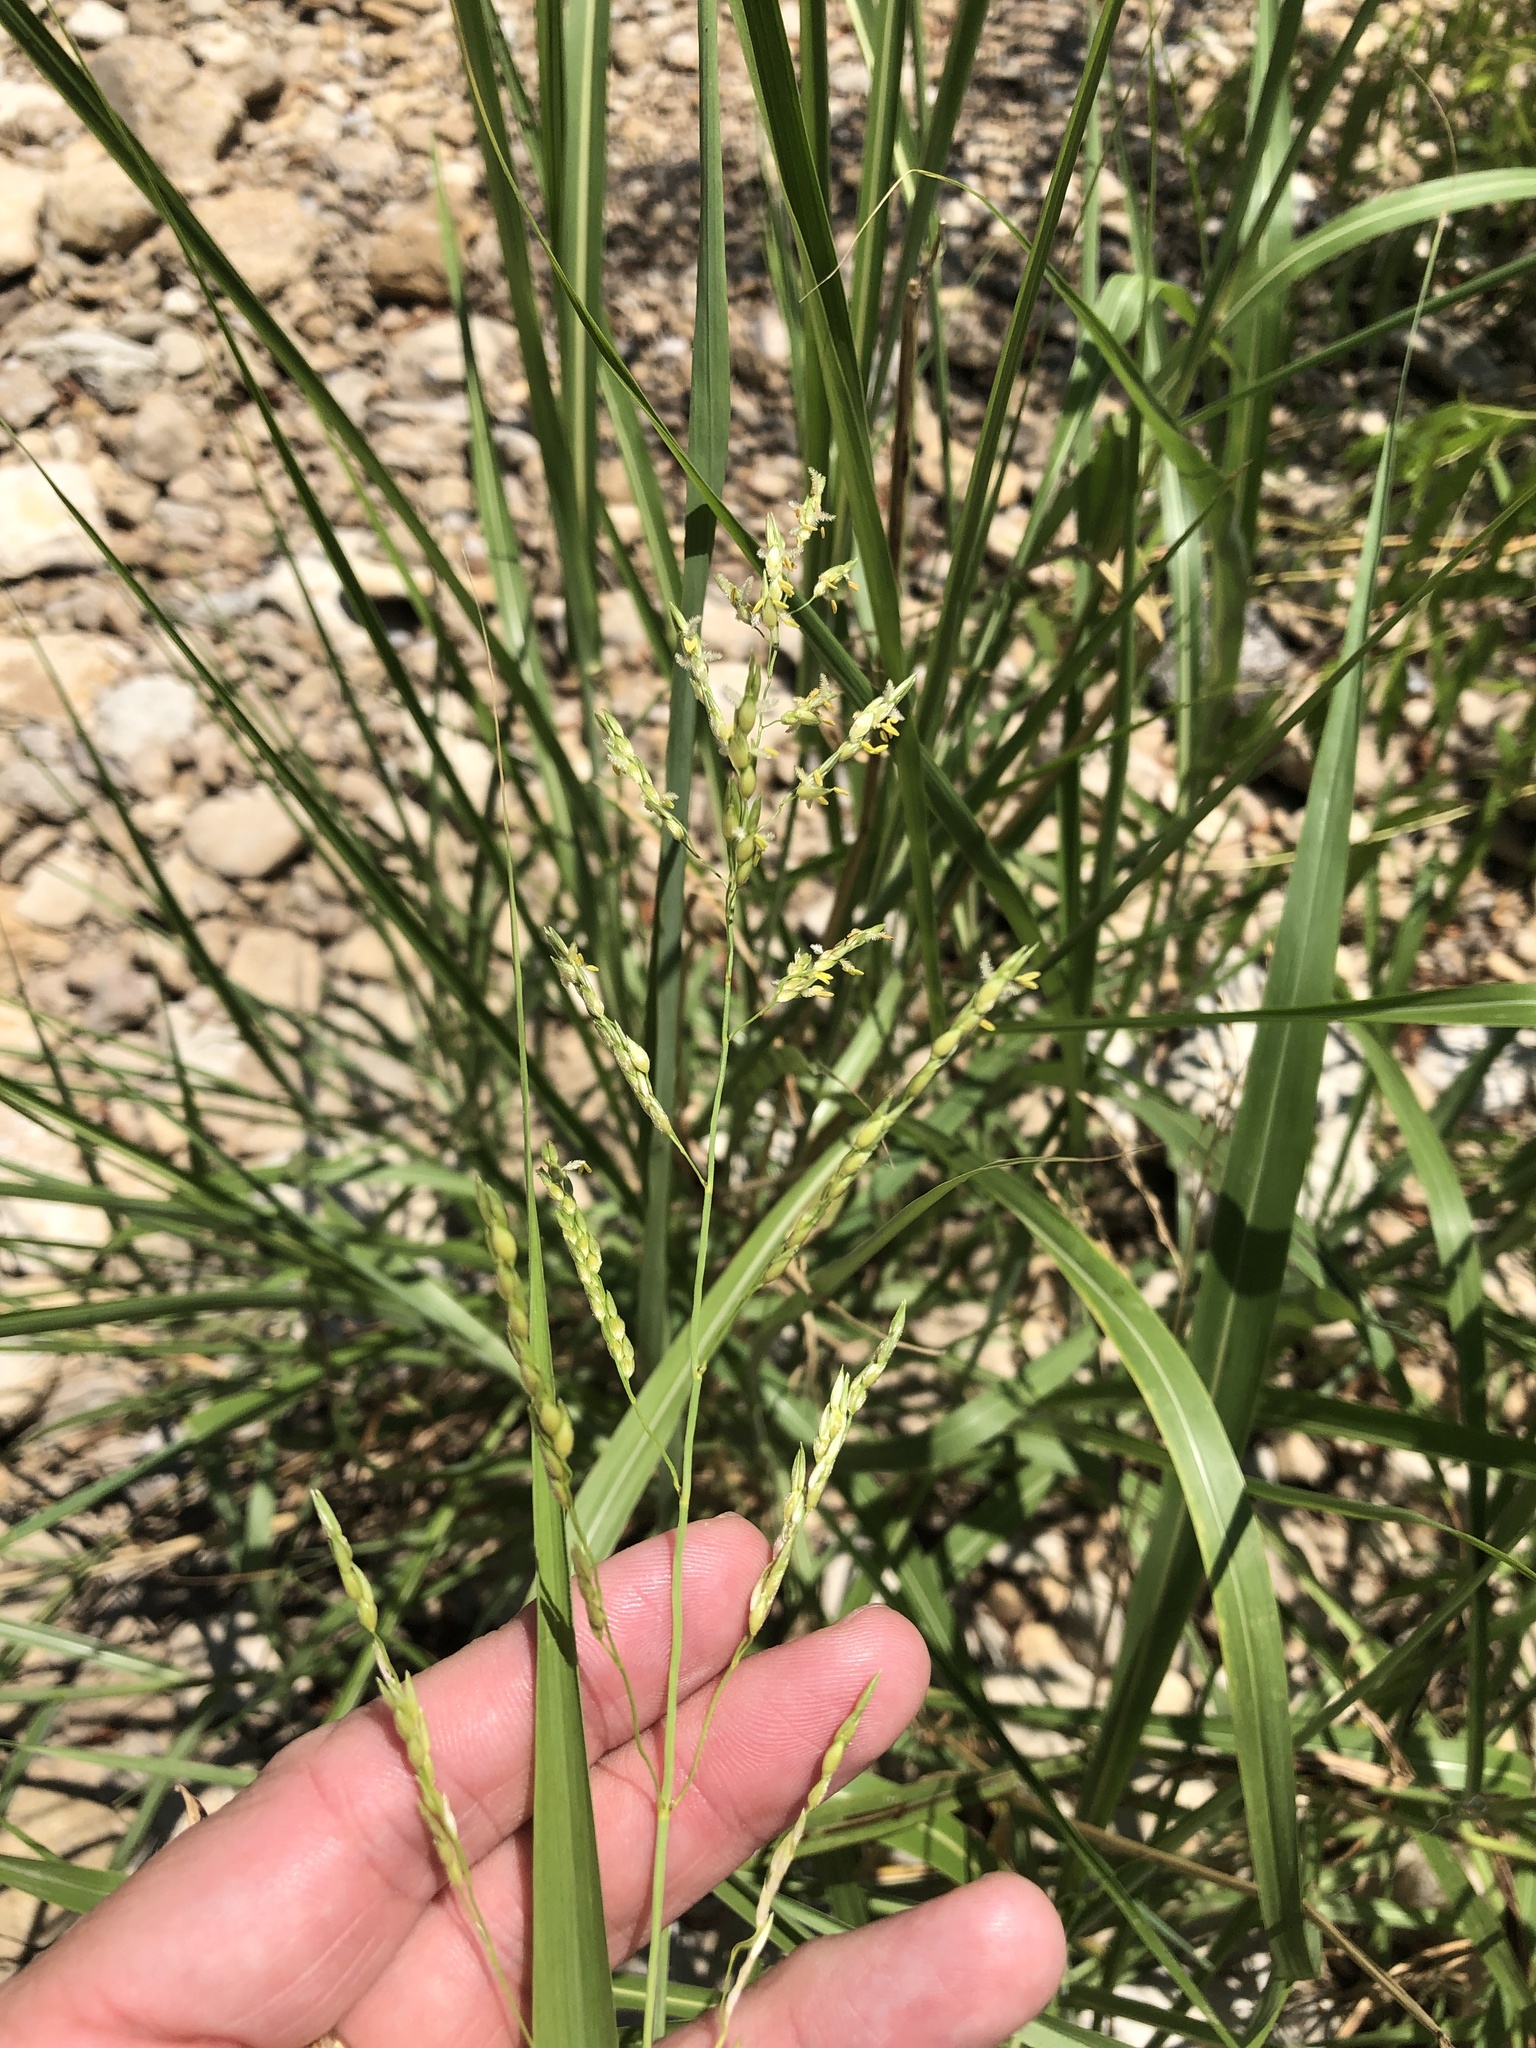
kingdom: Plantae
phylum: Tracheophyta
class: Liliopsida
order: Poales
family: Poaceae
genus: Sorghum
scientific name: Sorghum halepense
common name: Johnson-grass
